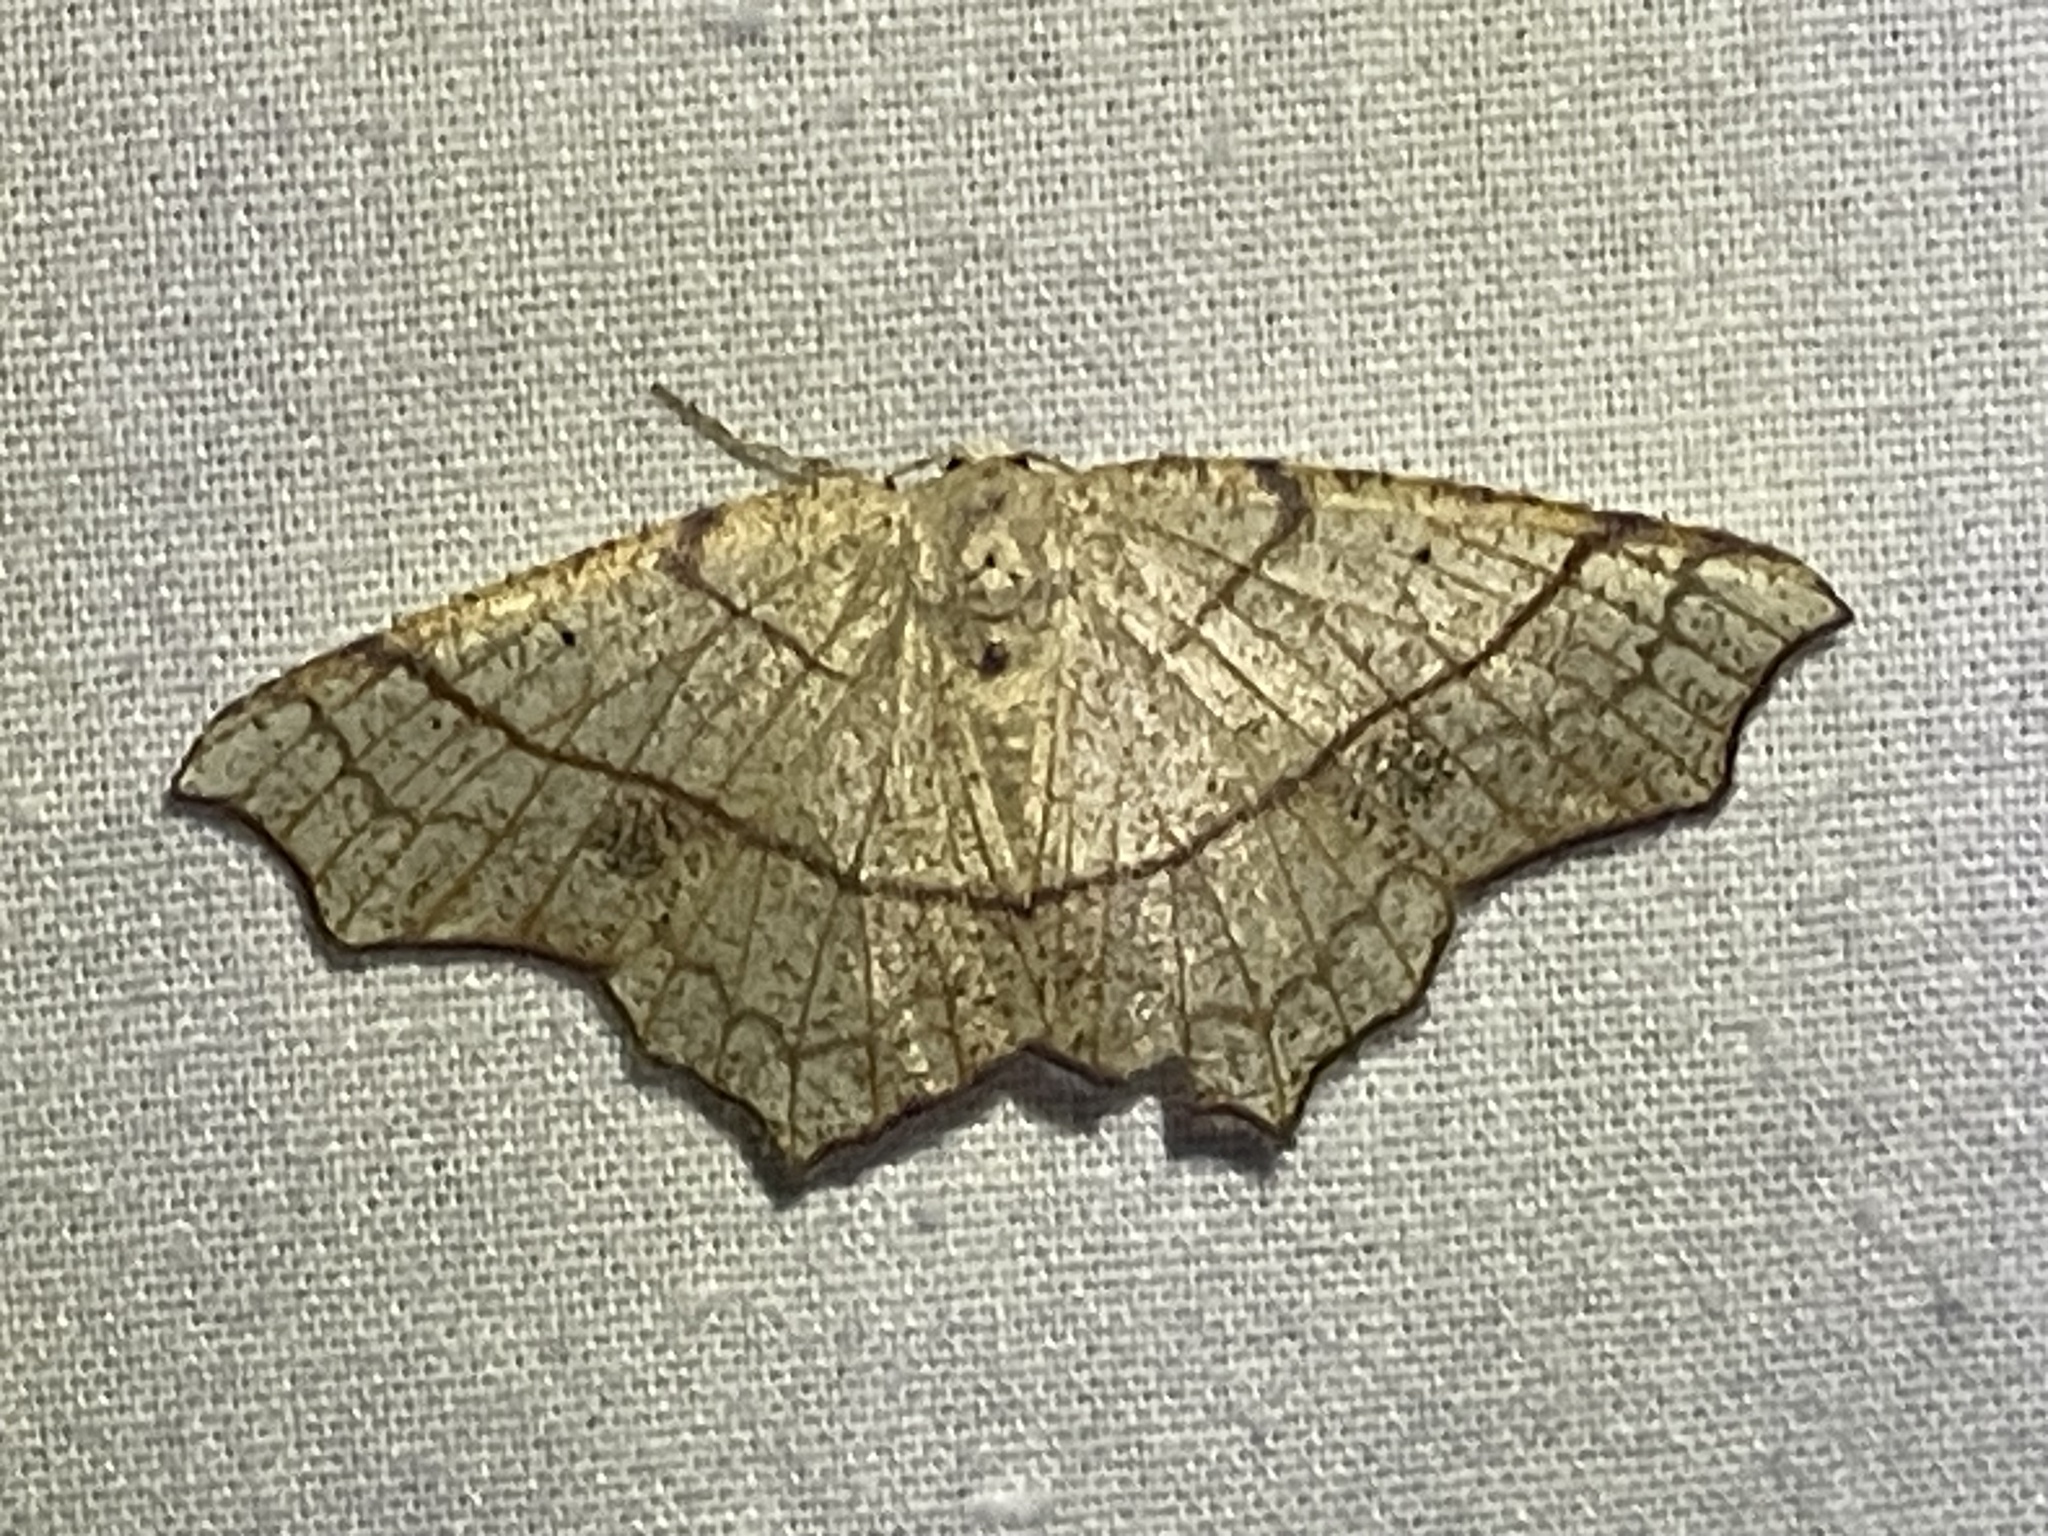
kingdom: Animalia
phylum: Arthropoda
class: Insecta
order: Lepidoptera
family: Geometridae
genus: Besma
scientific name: Besma quercivoraria
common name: Oak besma
